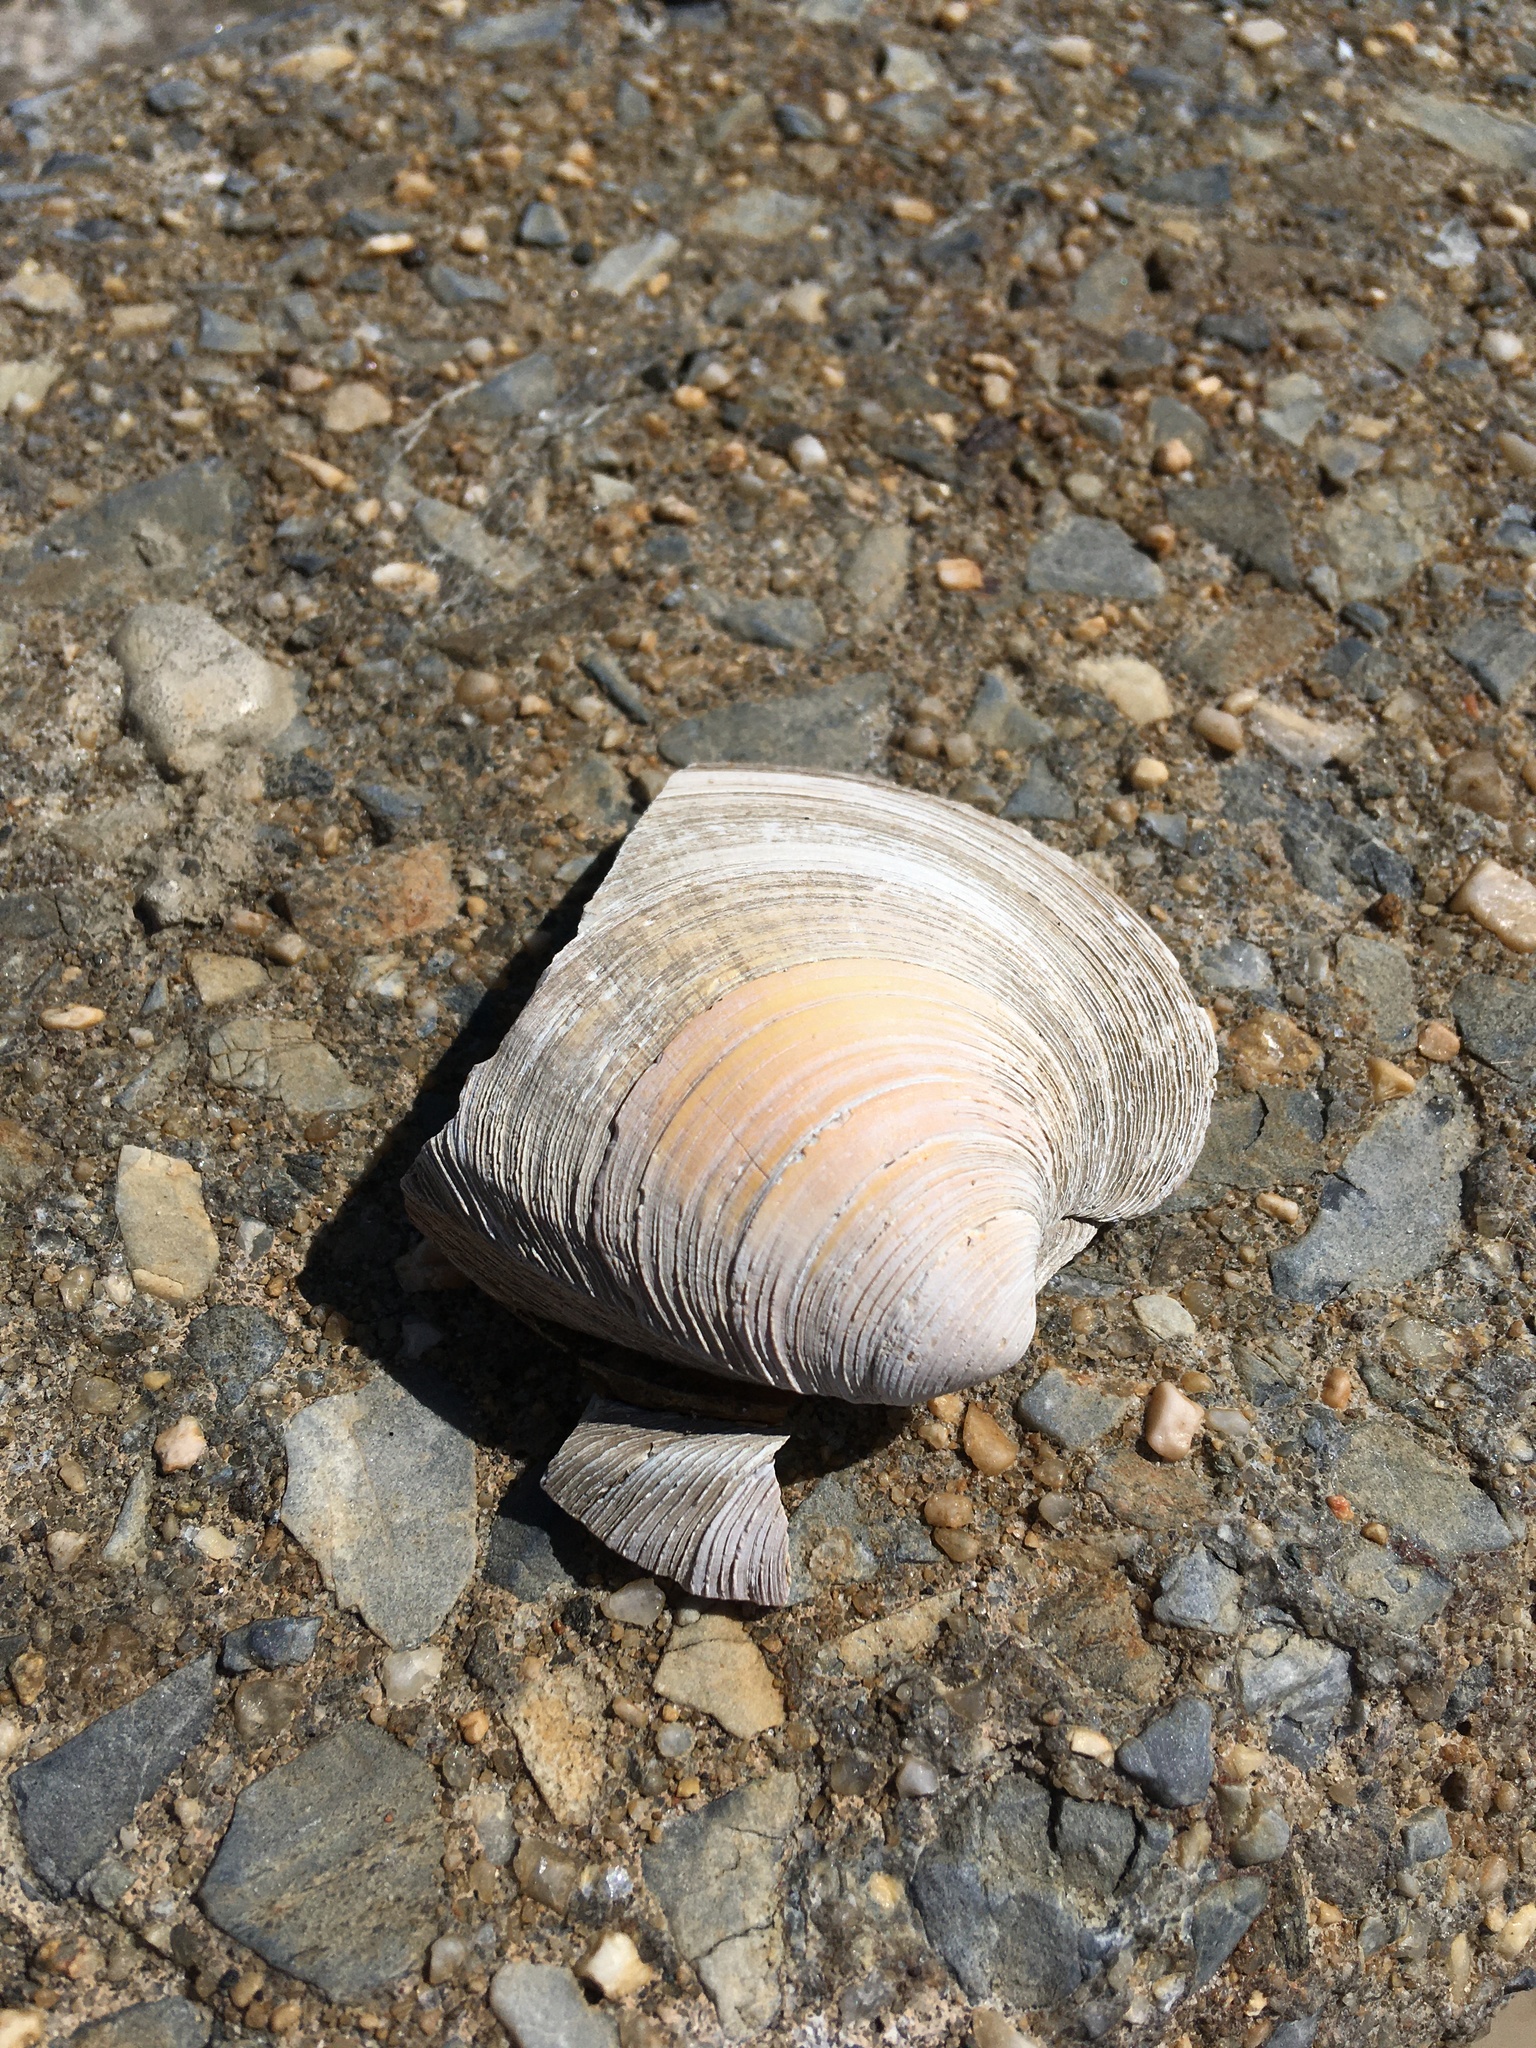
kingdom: Animalia
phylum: Mollusca
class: Bivalvia
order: Venerida
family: Veneridae
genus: Mercenaria
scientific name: Mercenaria mercenaria
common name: American hard-shelled clam
